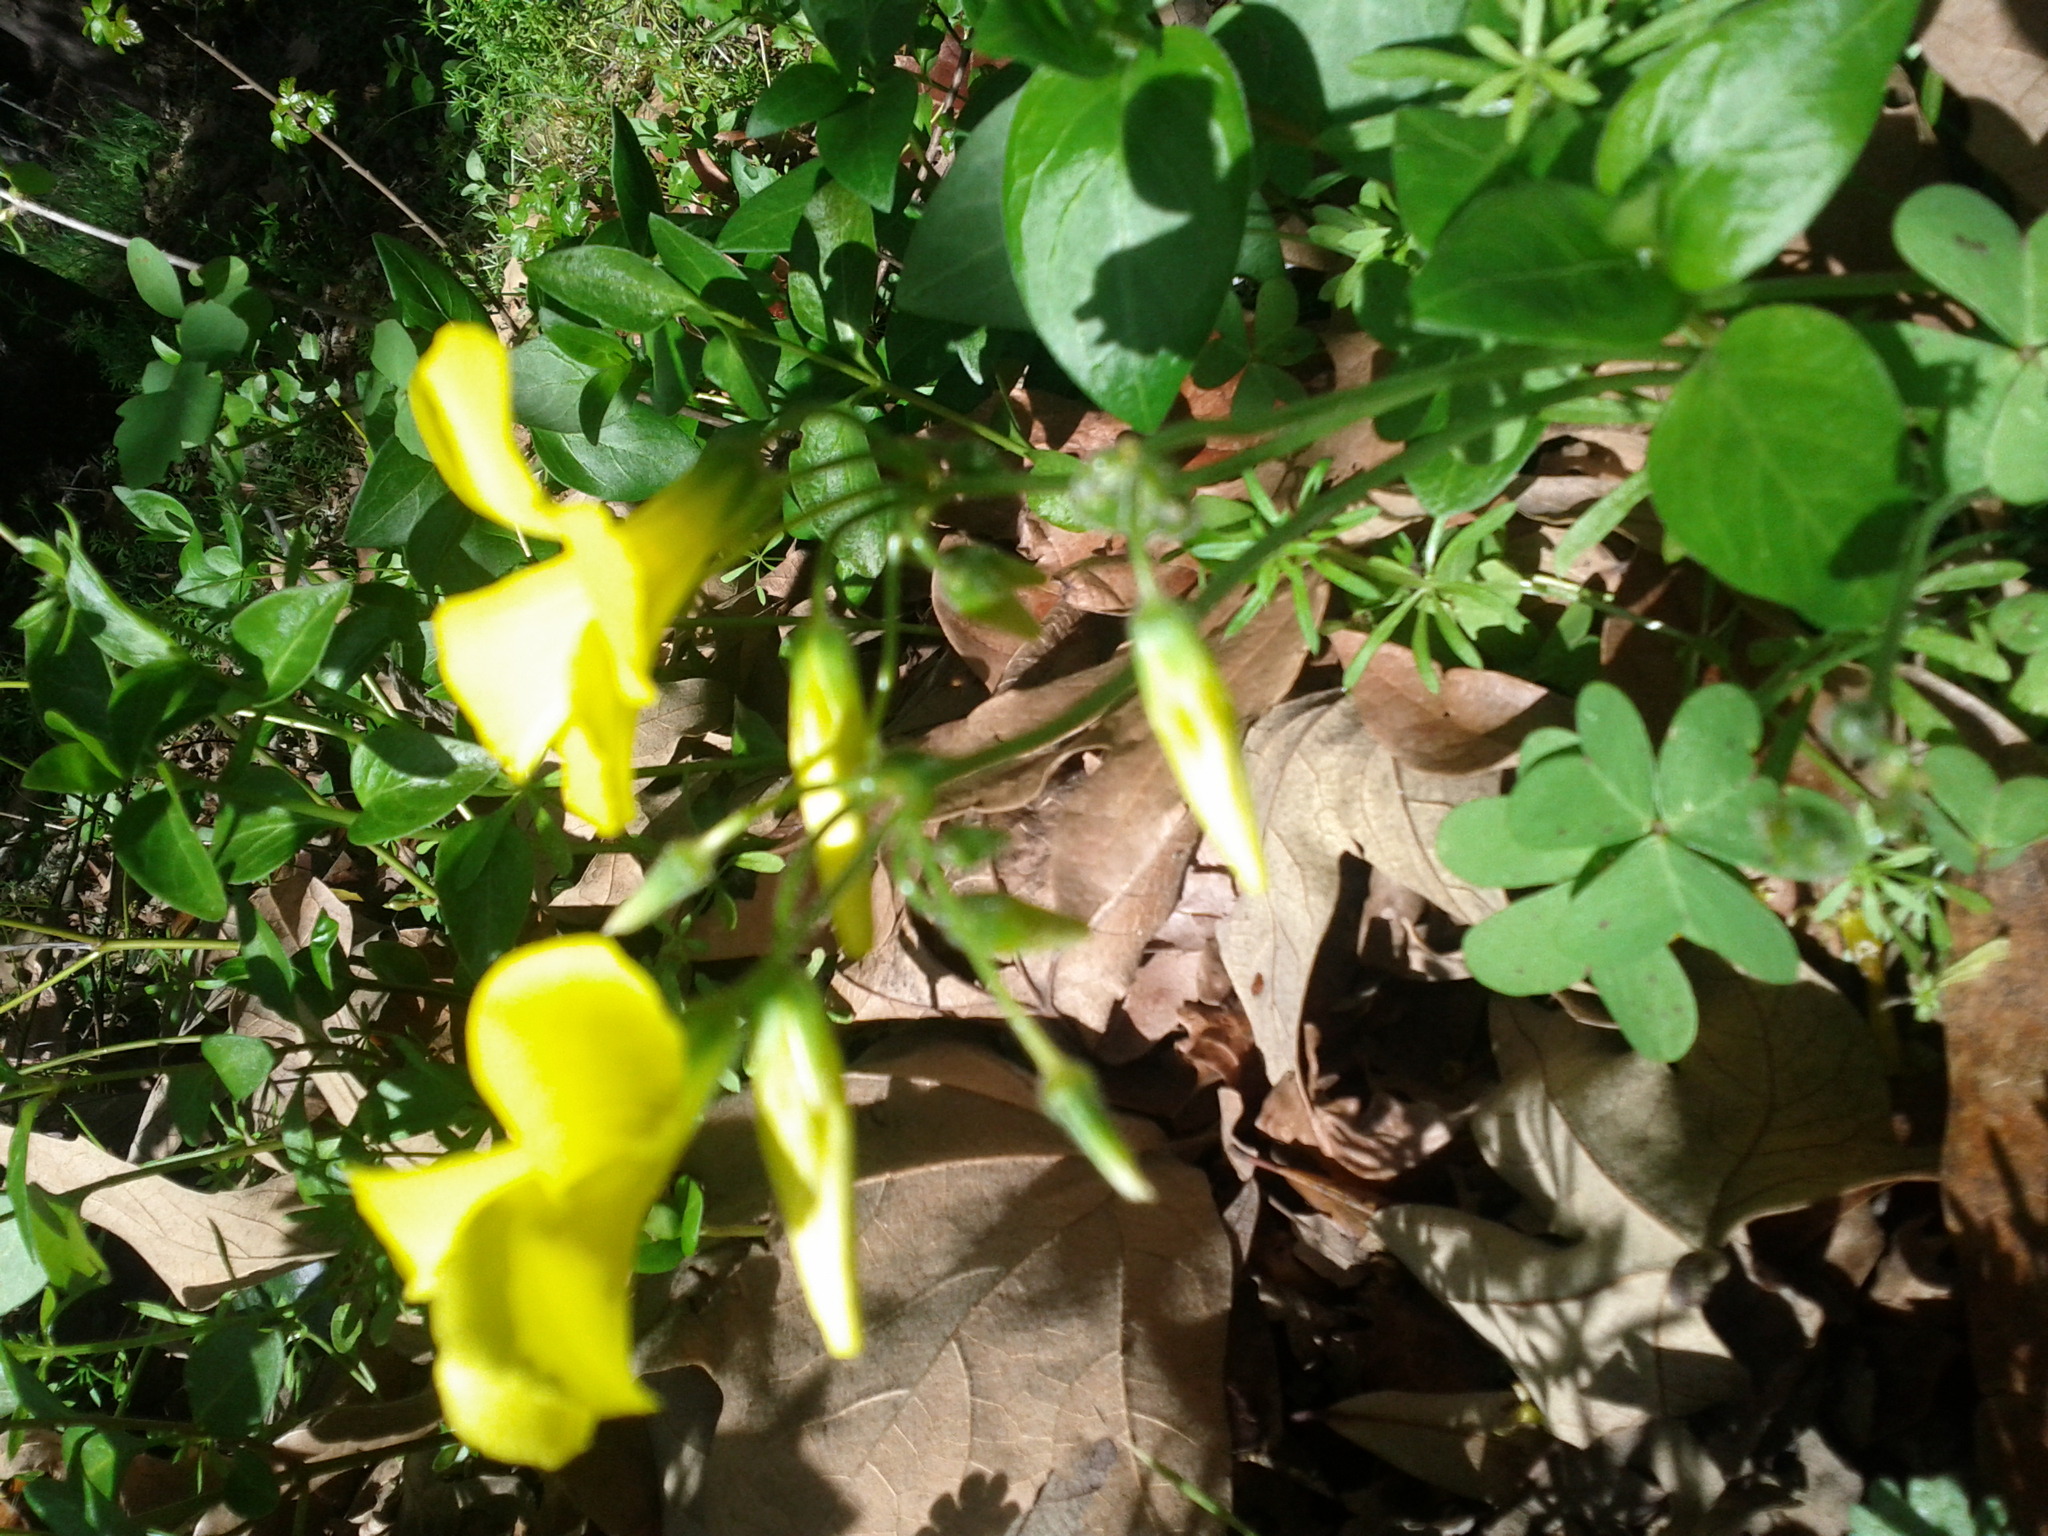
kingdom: Plantae
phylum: Tracheophyta
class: Magnoliopsida
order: Oxalidales
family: Oxalidaceae
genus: Oxalis
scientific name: Oxalis pes-caprae
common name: Bermuda-buttercup
